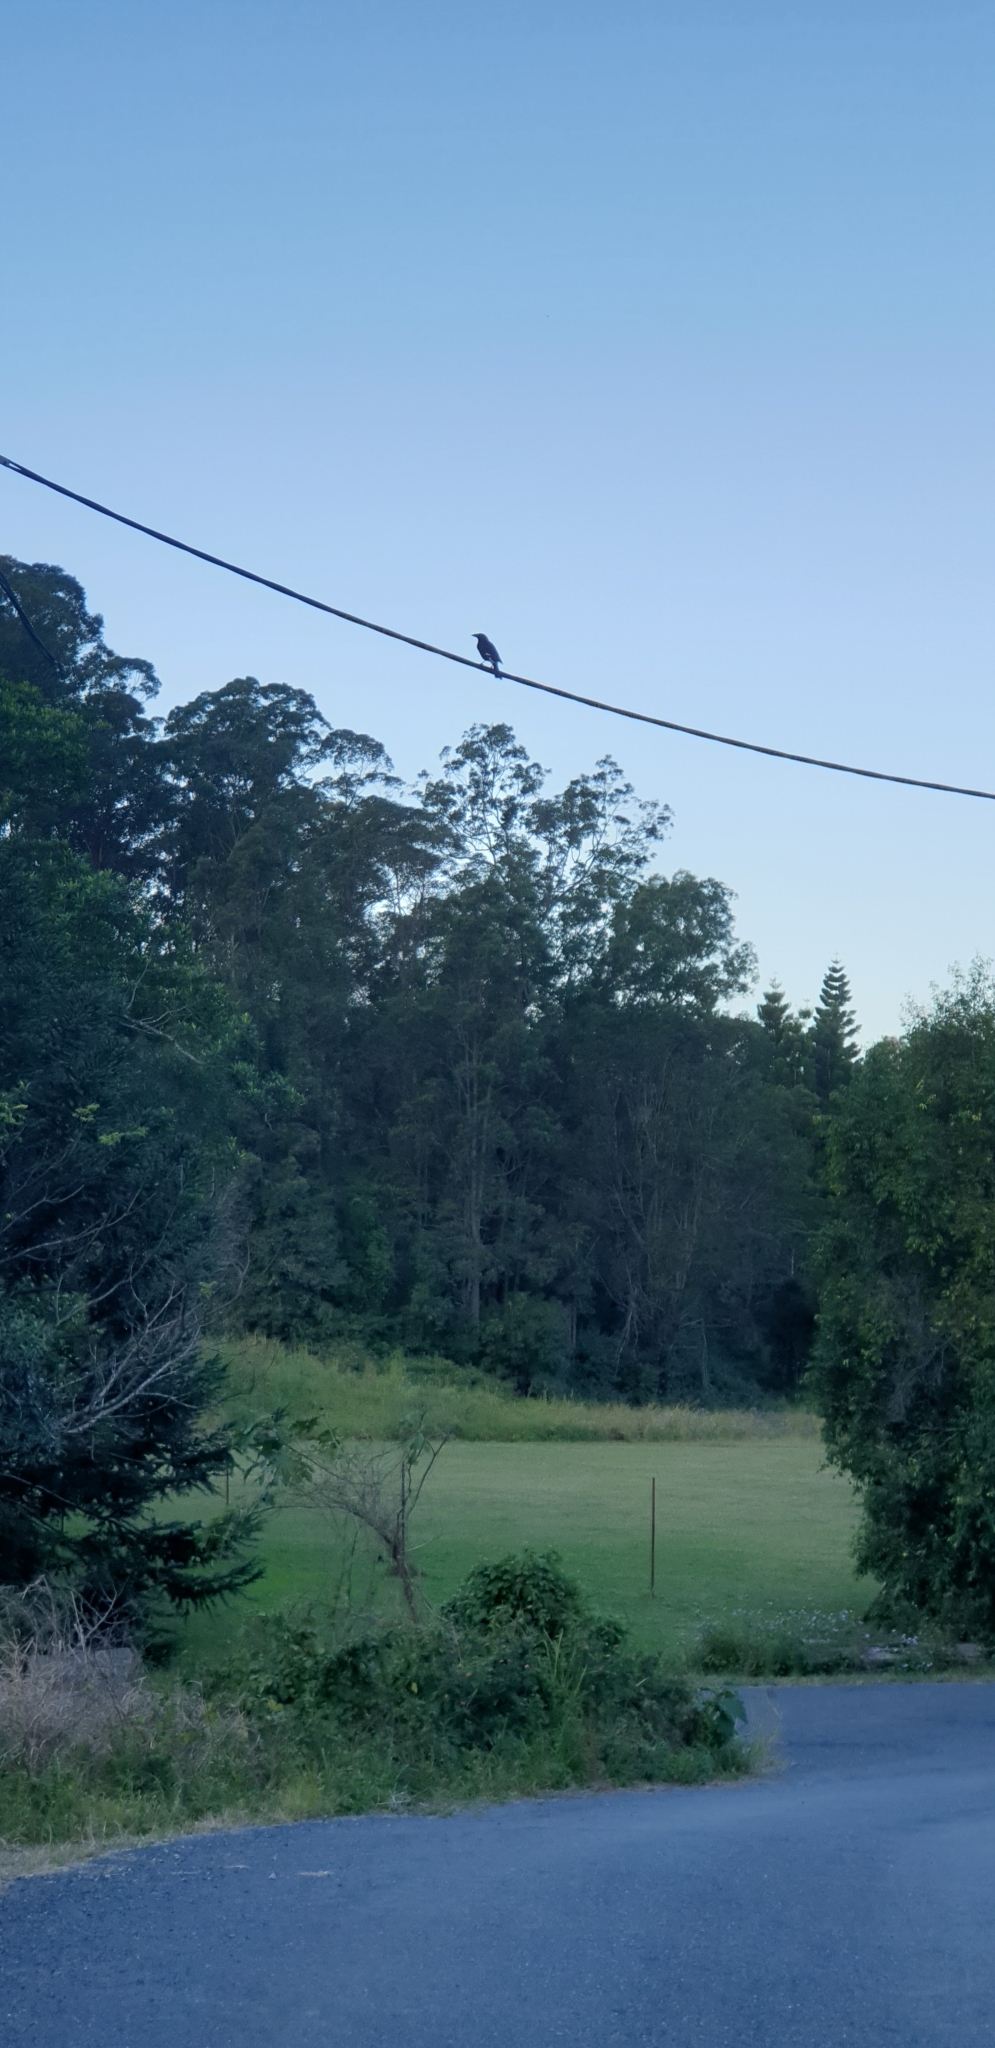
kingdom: Animalia
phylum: Chordata
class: Aves
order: Passeriformes
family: Cracticidae
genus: Strepera
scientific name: Strepera graculina
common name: Pied currawong
